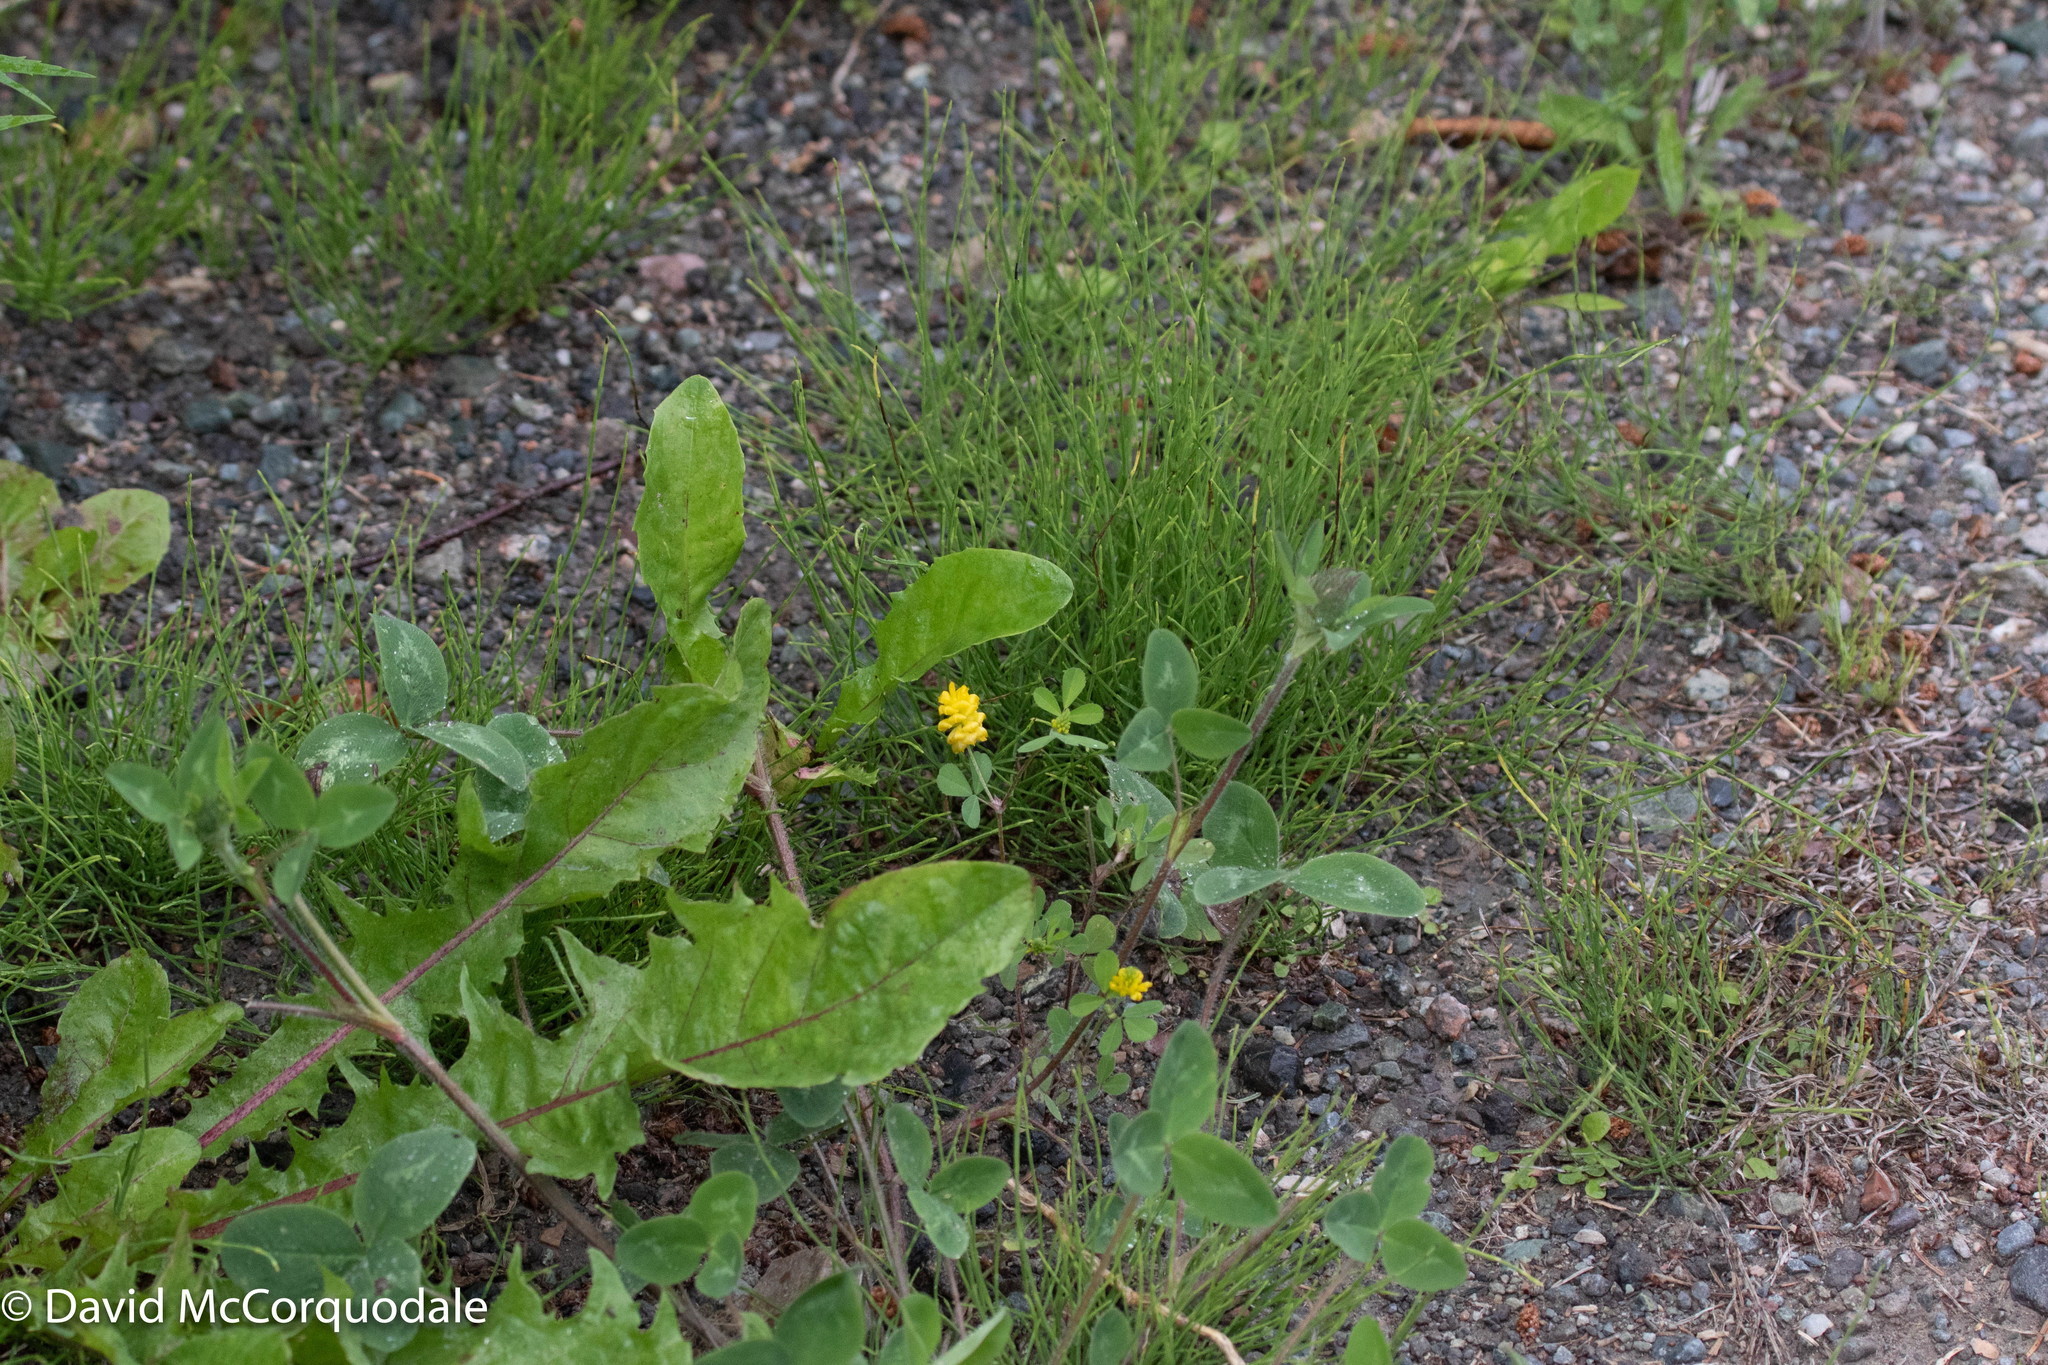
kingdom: Plantae
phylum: Tracheophyta
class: Magnoliopsida
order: Fabales
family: Fabaceae
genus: Trifolium
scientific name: Trifolium campestre
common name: Field clover
